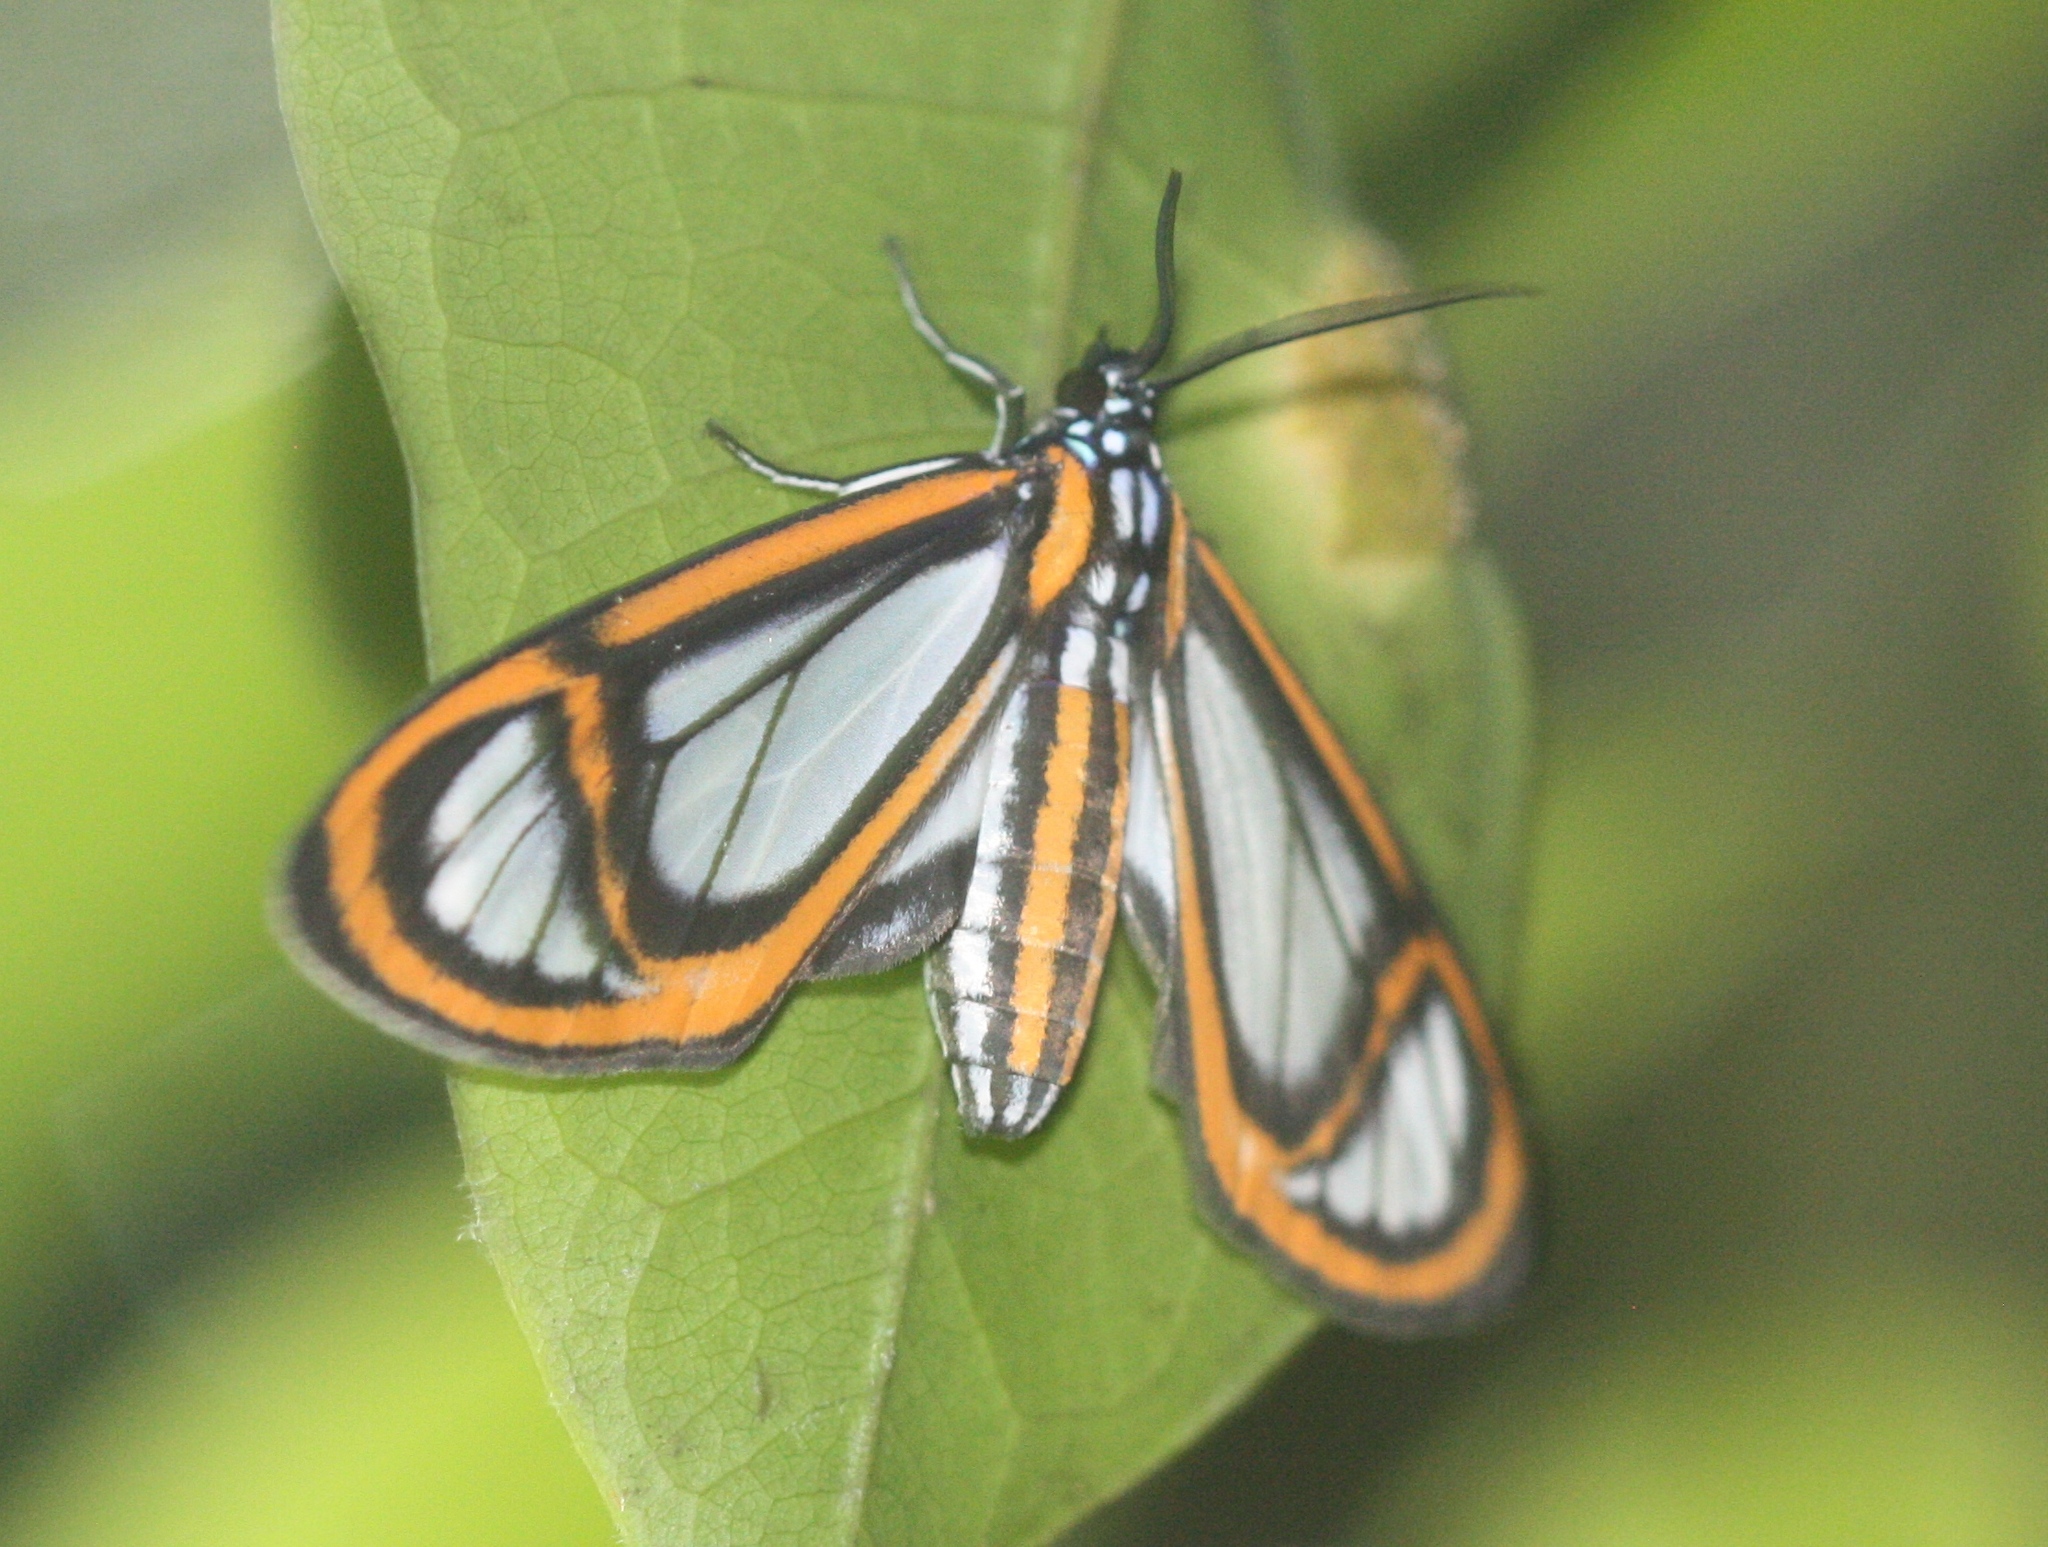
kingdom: Animalia
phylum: Arthropoda
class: Insecta
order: Lepidoptera
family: Erebidae
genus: Hyalurga
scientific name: Hyalurga fenestra
